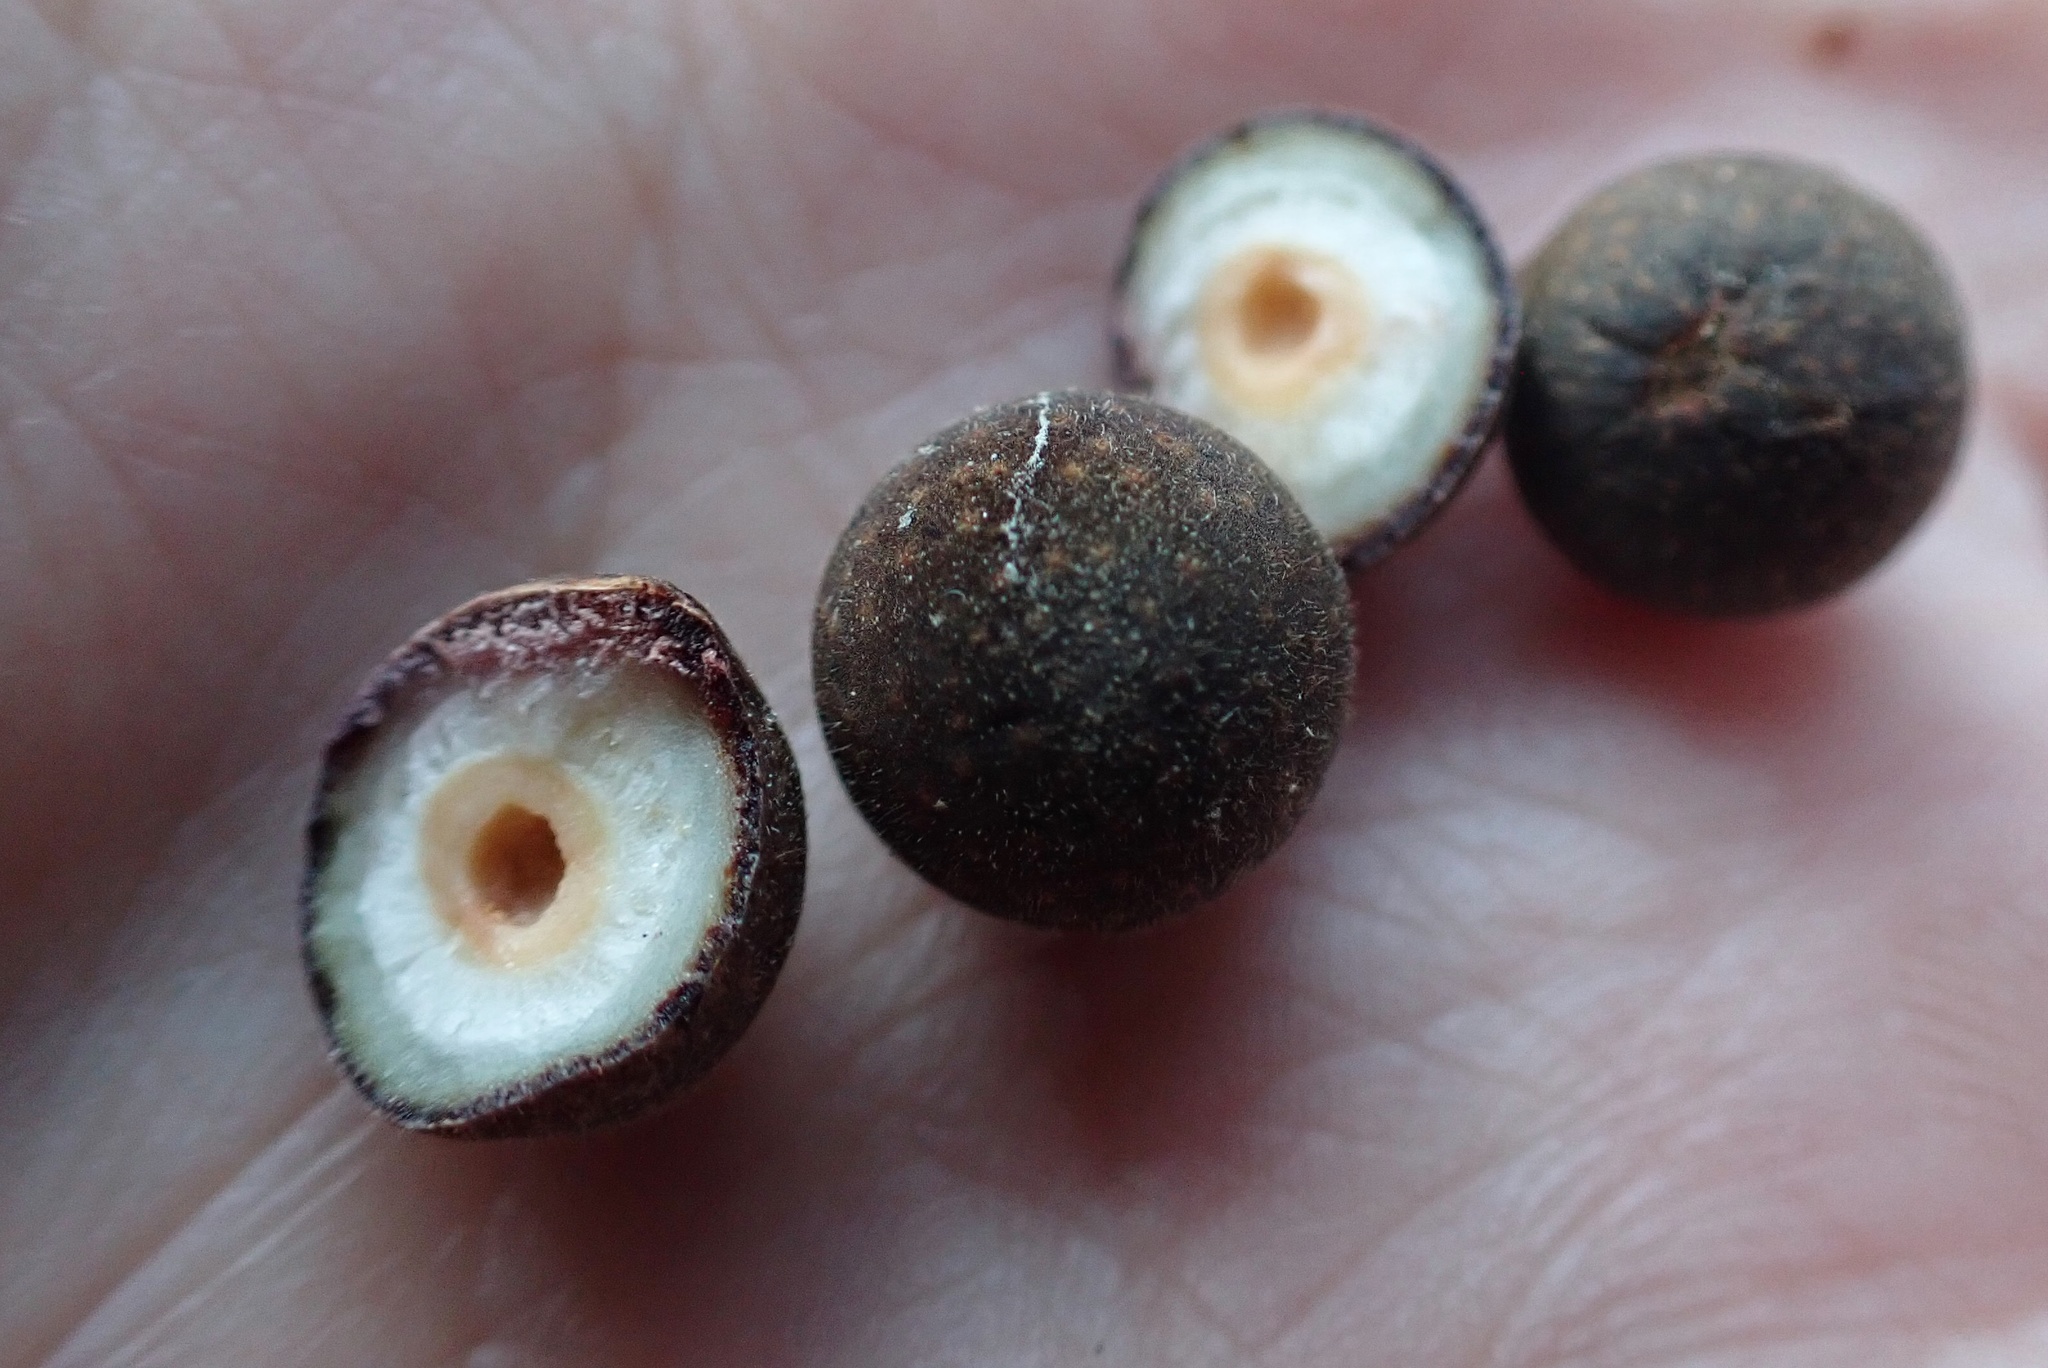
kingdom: Animalia
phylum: Arthropoda
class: Insecta
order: Hymenoptera
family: Cynipidae
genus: Callirhytis
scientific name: Callirhytis
